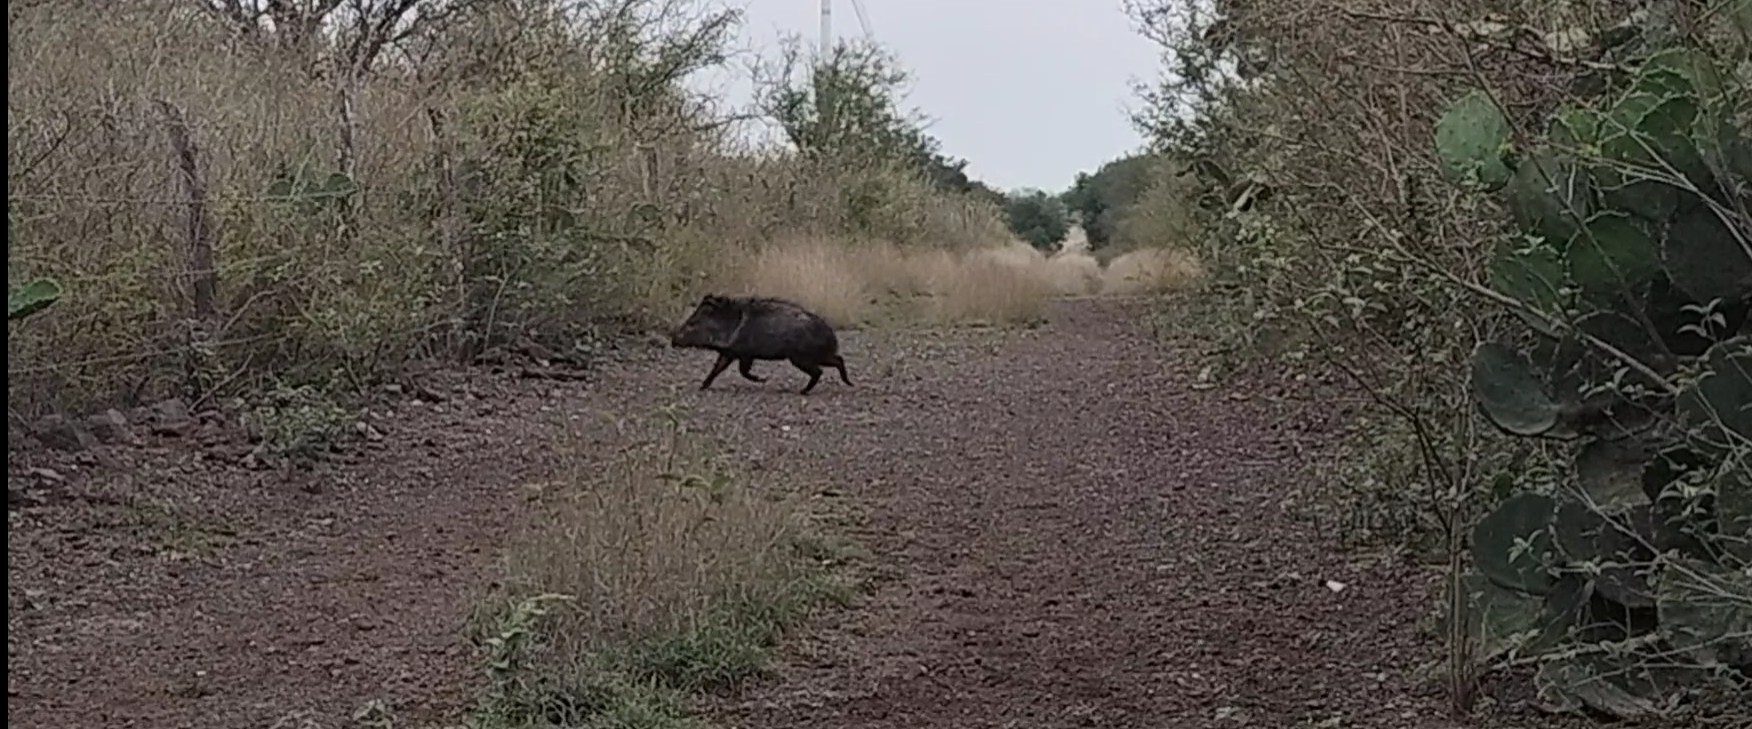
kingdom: Animalia
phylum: Chordata
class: Mammalia
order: Artiodactyla
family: Tayassuidae
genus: Pecari
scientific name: Pecari tajacu
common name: Collared peccary
